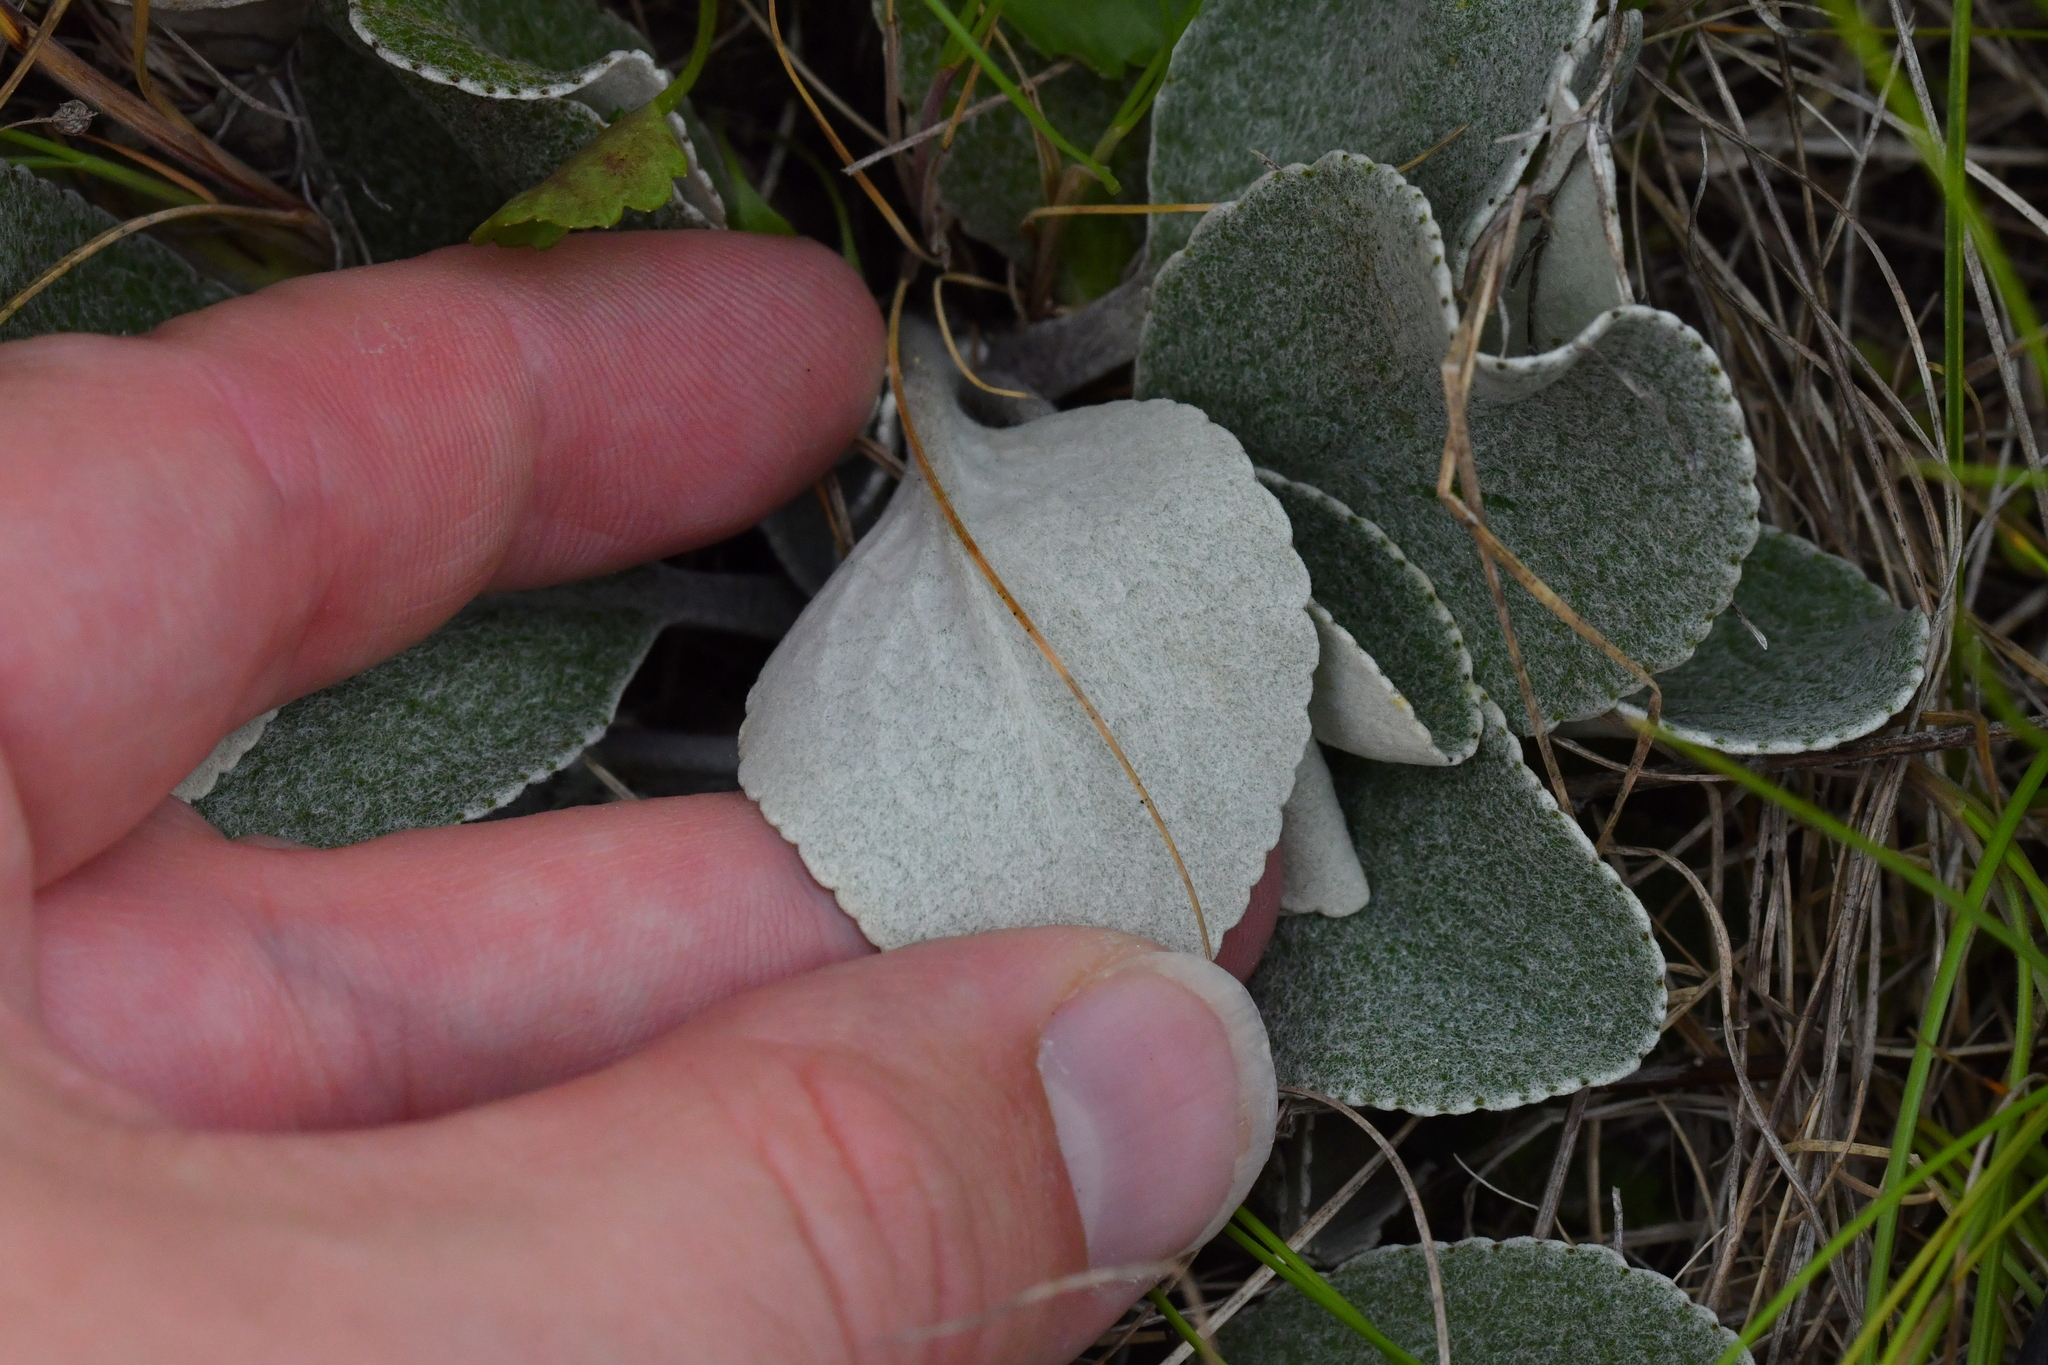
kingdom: Plantae
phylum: Tracheophyta
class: Magnoliopsida
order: Asterales
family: Asteraceae
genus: Brachyglottis
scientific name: Brachyglottis haastii
